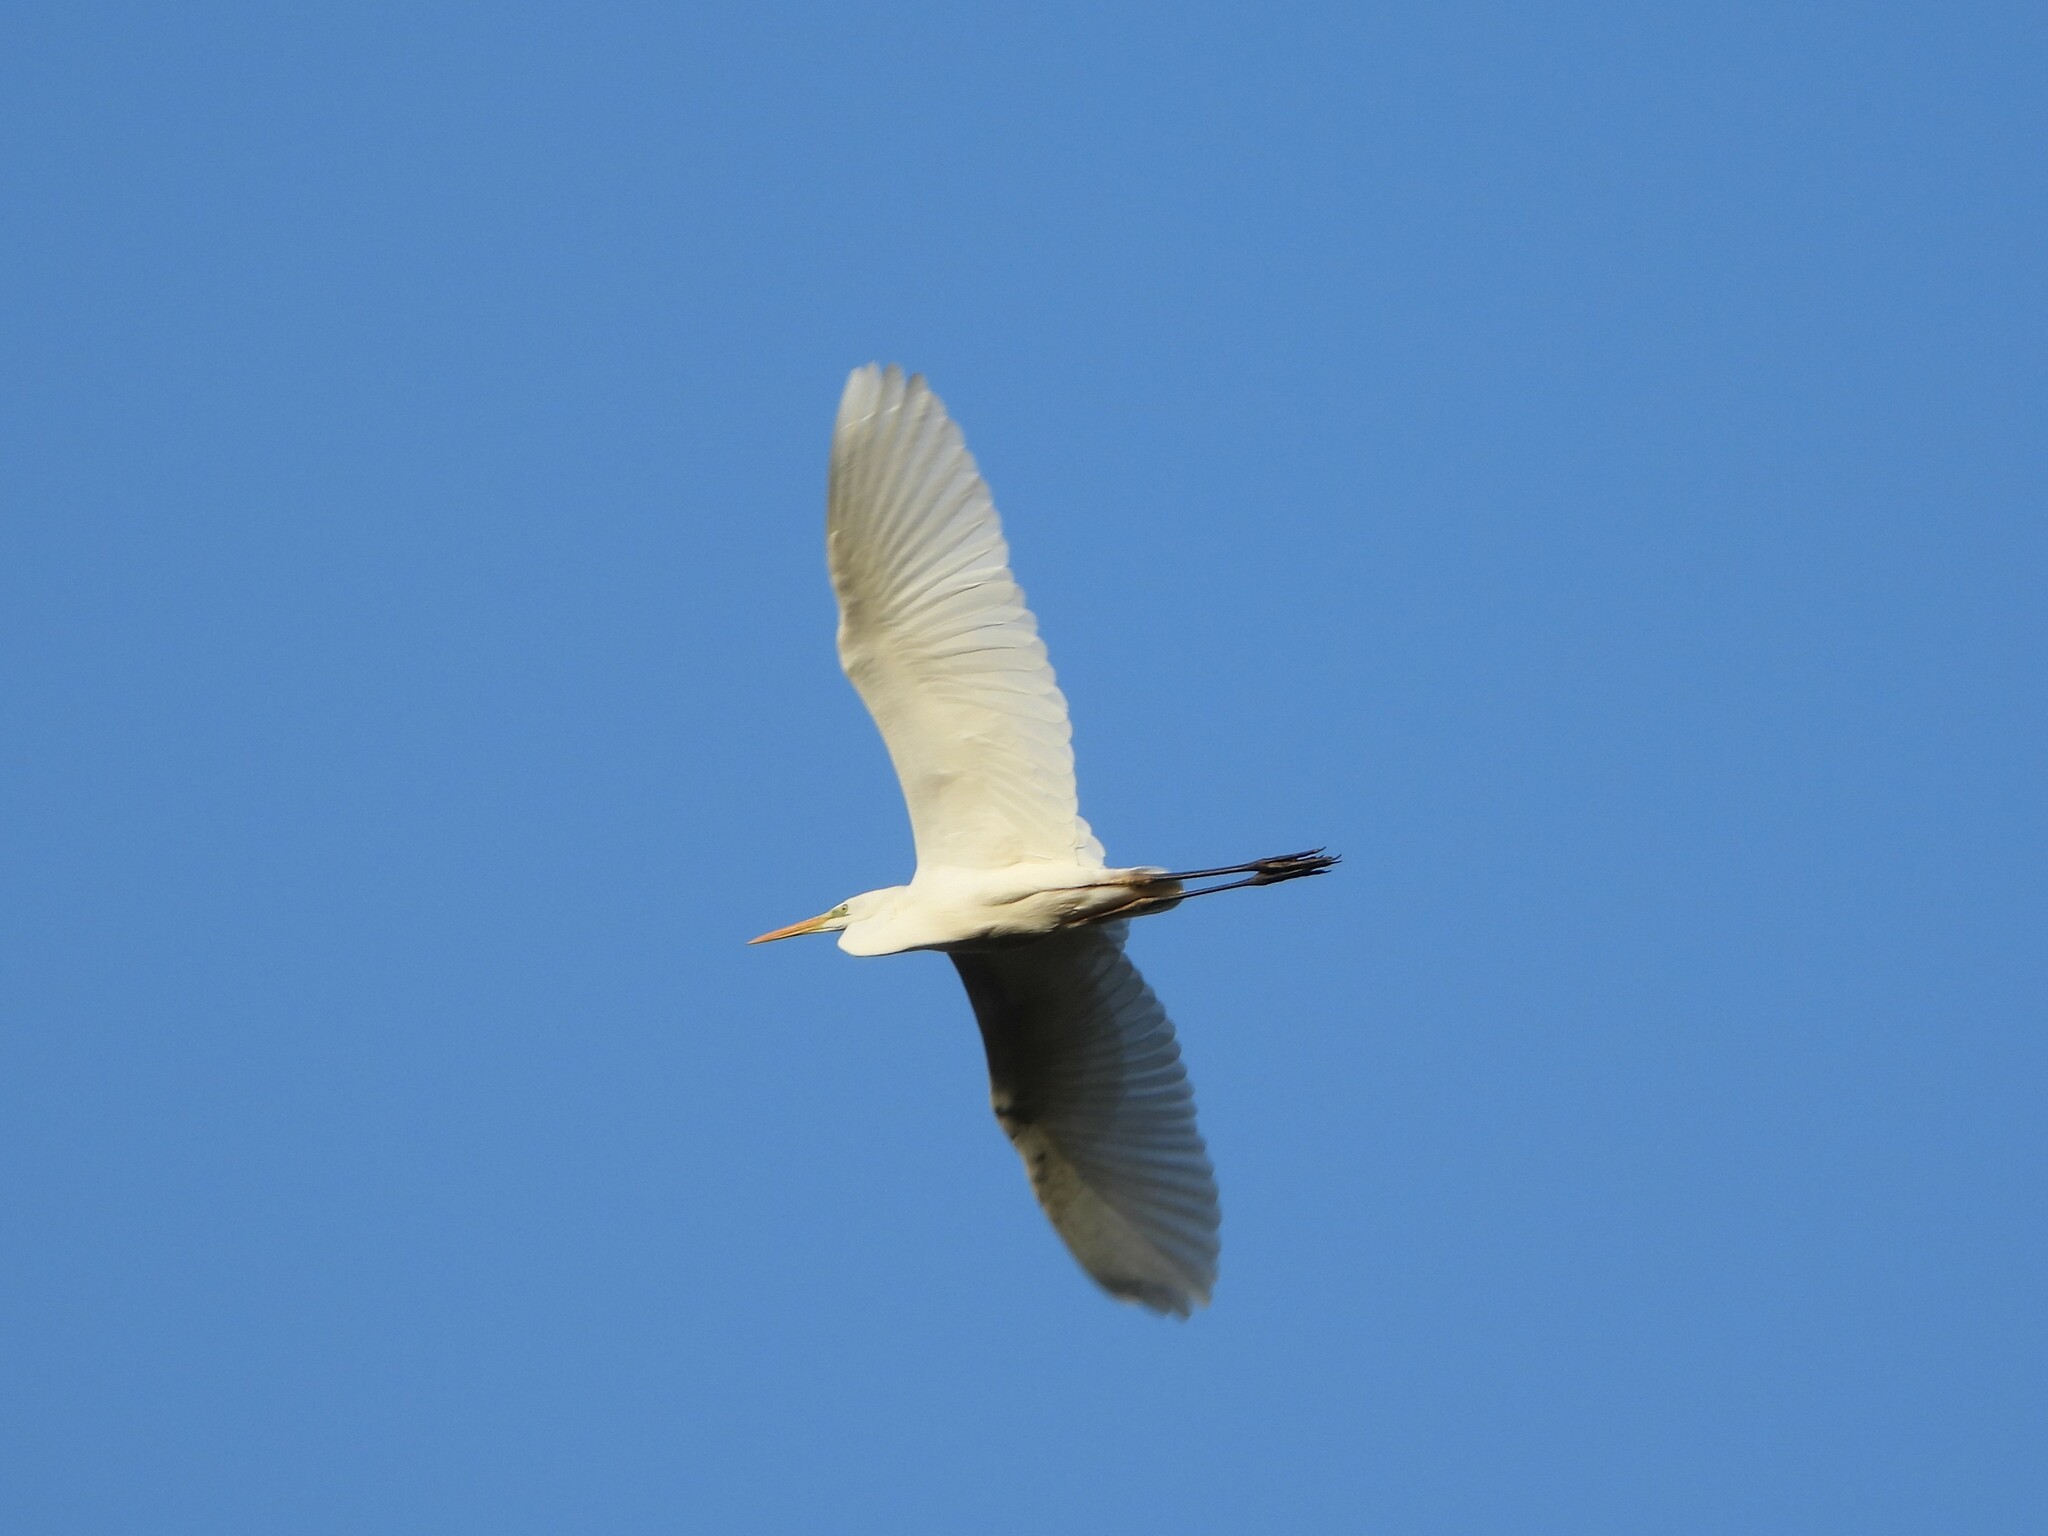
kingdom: Animalia
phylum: Chordata
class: Aves
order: Pelecaniformes
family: Ardeidae
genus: Ardea
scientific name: Ardea alba
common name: Great egret
